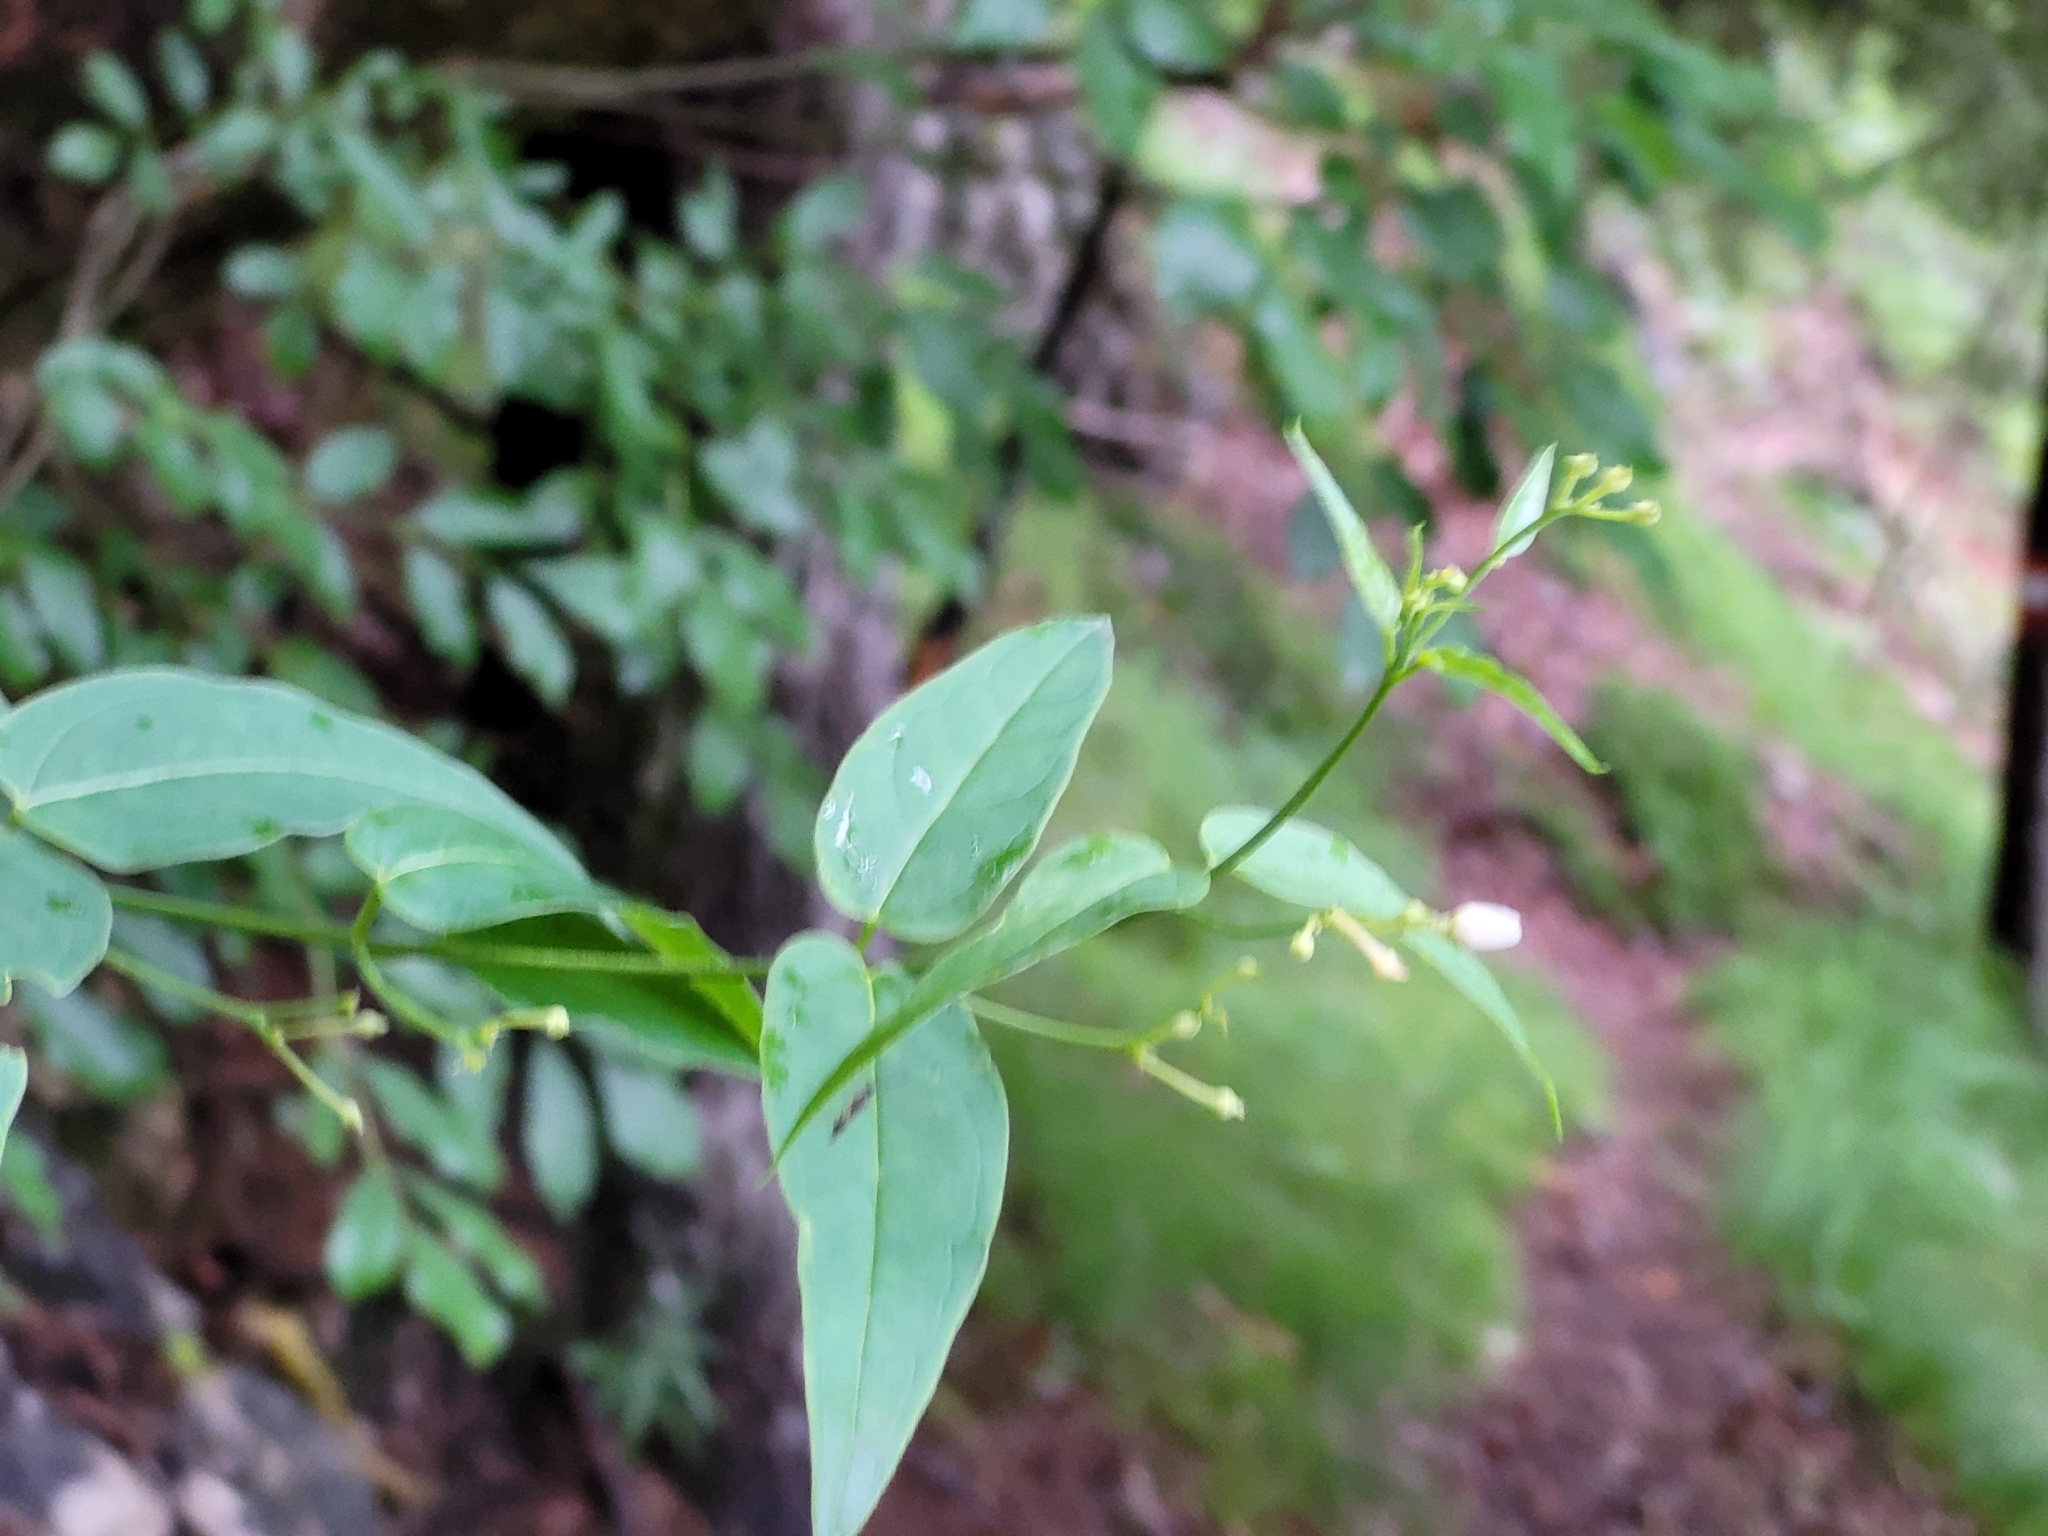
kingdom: Plantae
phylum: Tracheophyta
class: Magnoliopsida
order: Gentianales
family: Apocynaceae
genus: Vincetoxicum
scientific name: Vincetoxicum hirundinaria
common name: White swallowwort
